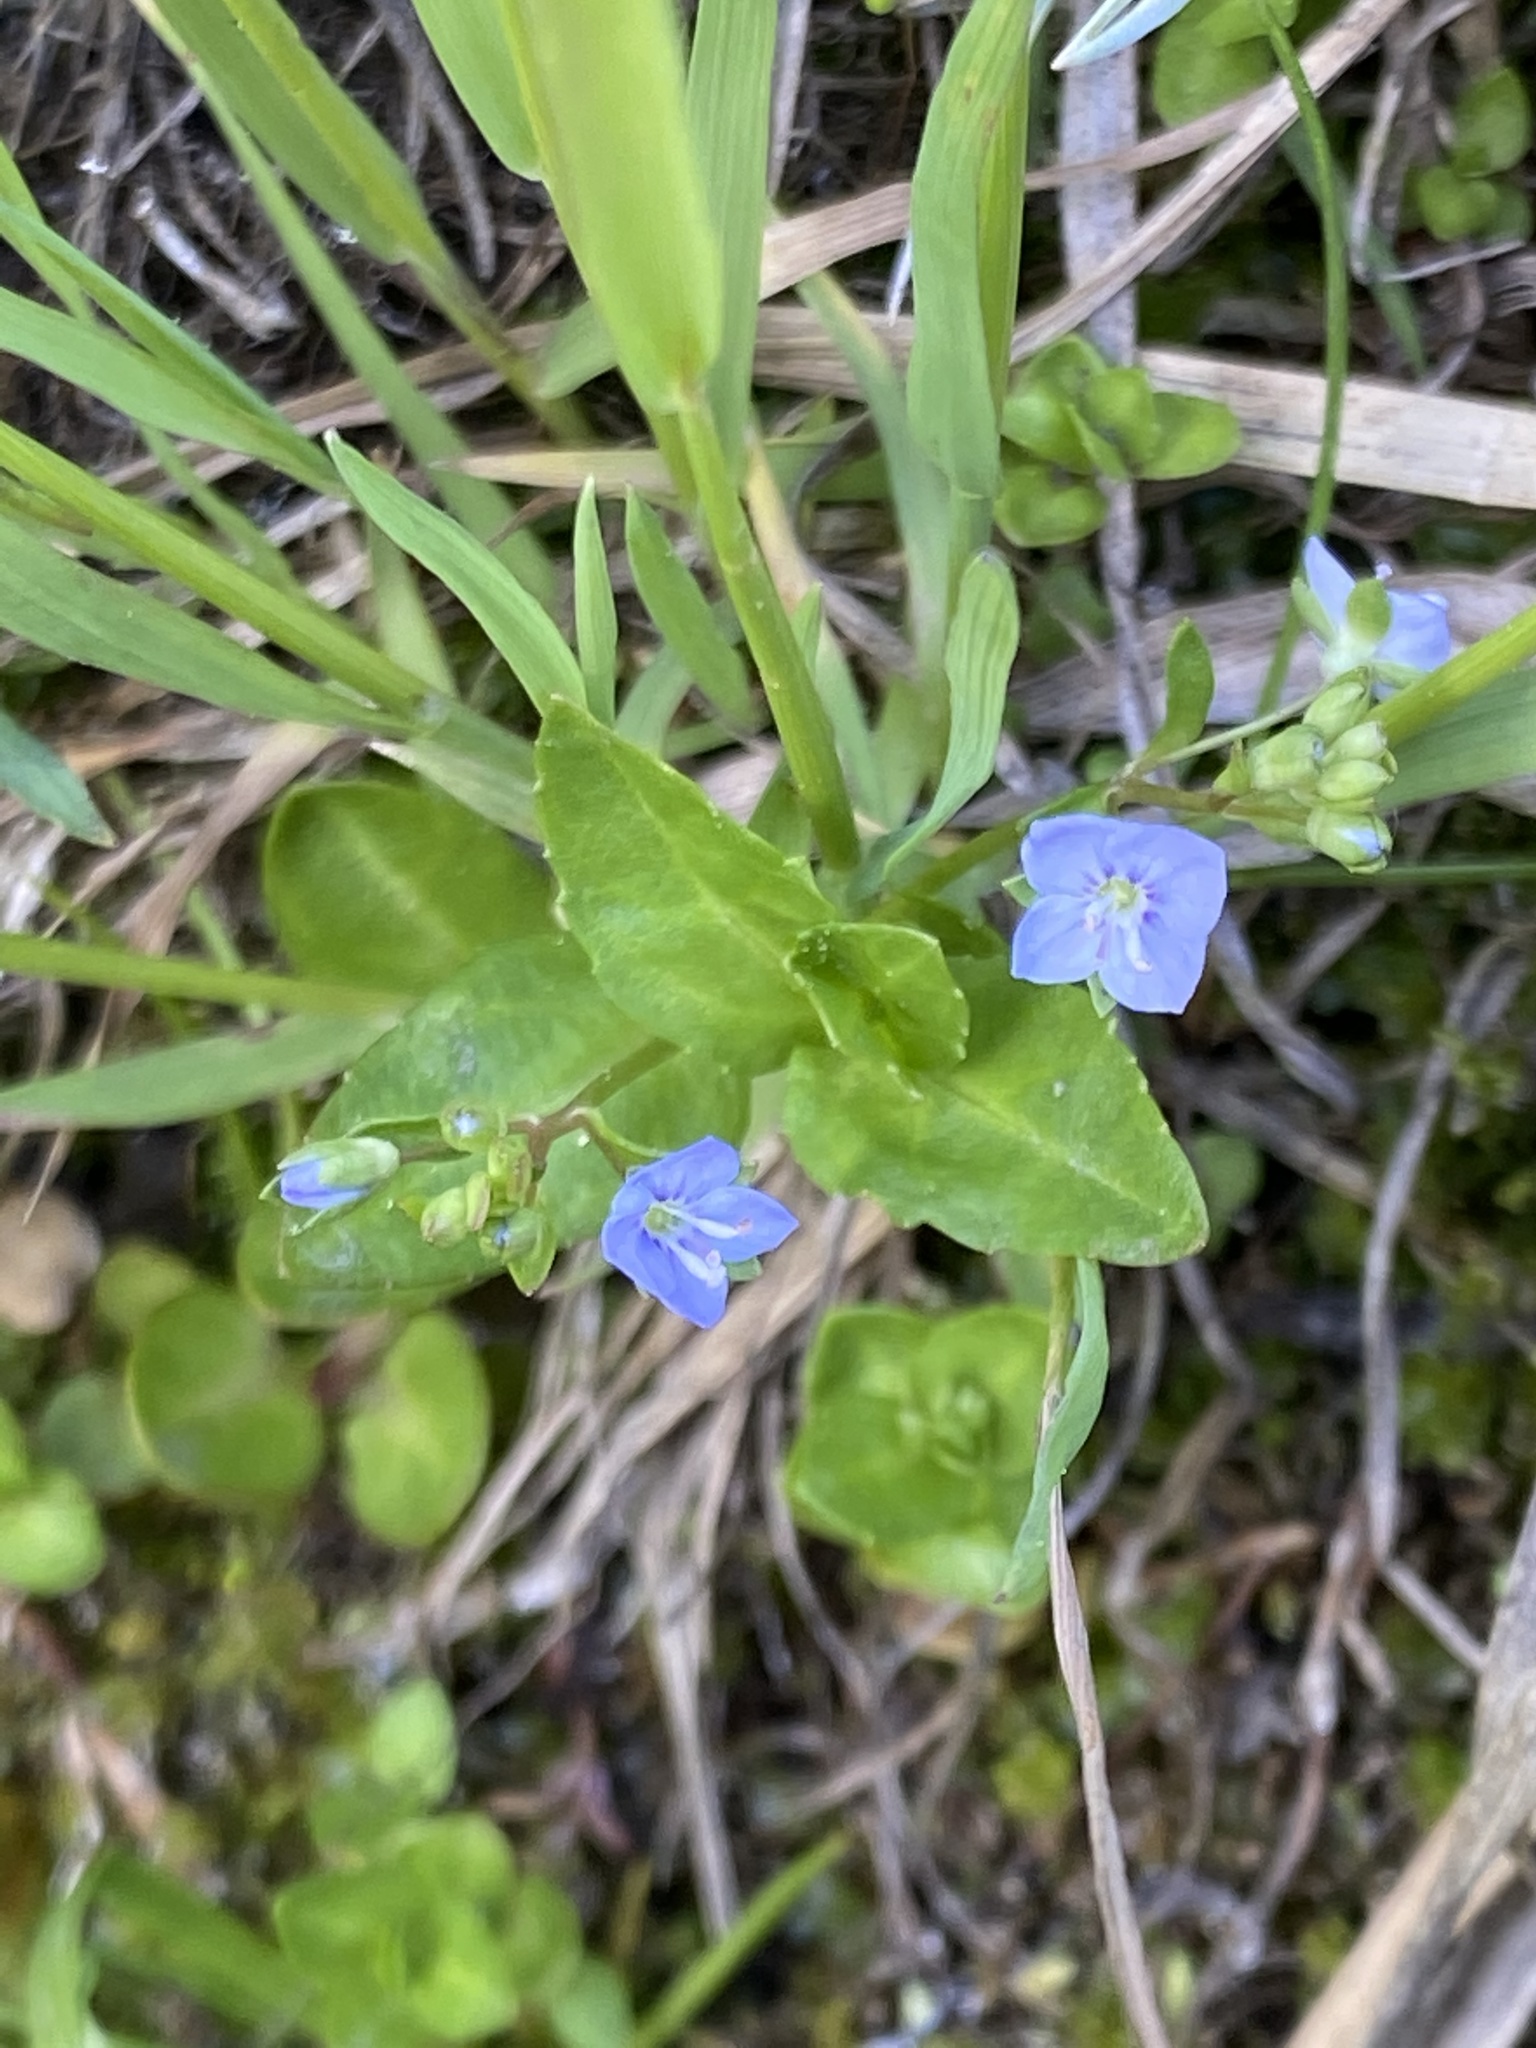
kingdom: Plantae
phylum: Tracheophyta
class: Magnoliopsida
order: Lamiales
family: Plantaginaceae
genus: Veronica
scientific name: Veronica americana
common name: American brooklime
